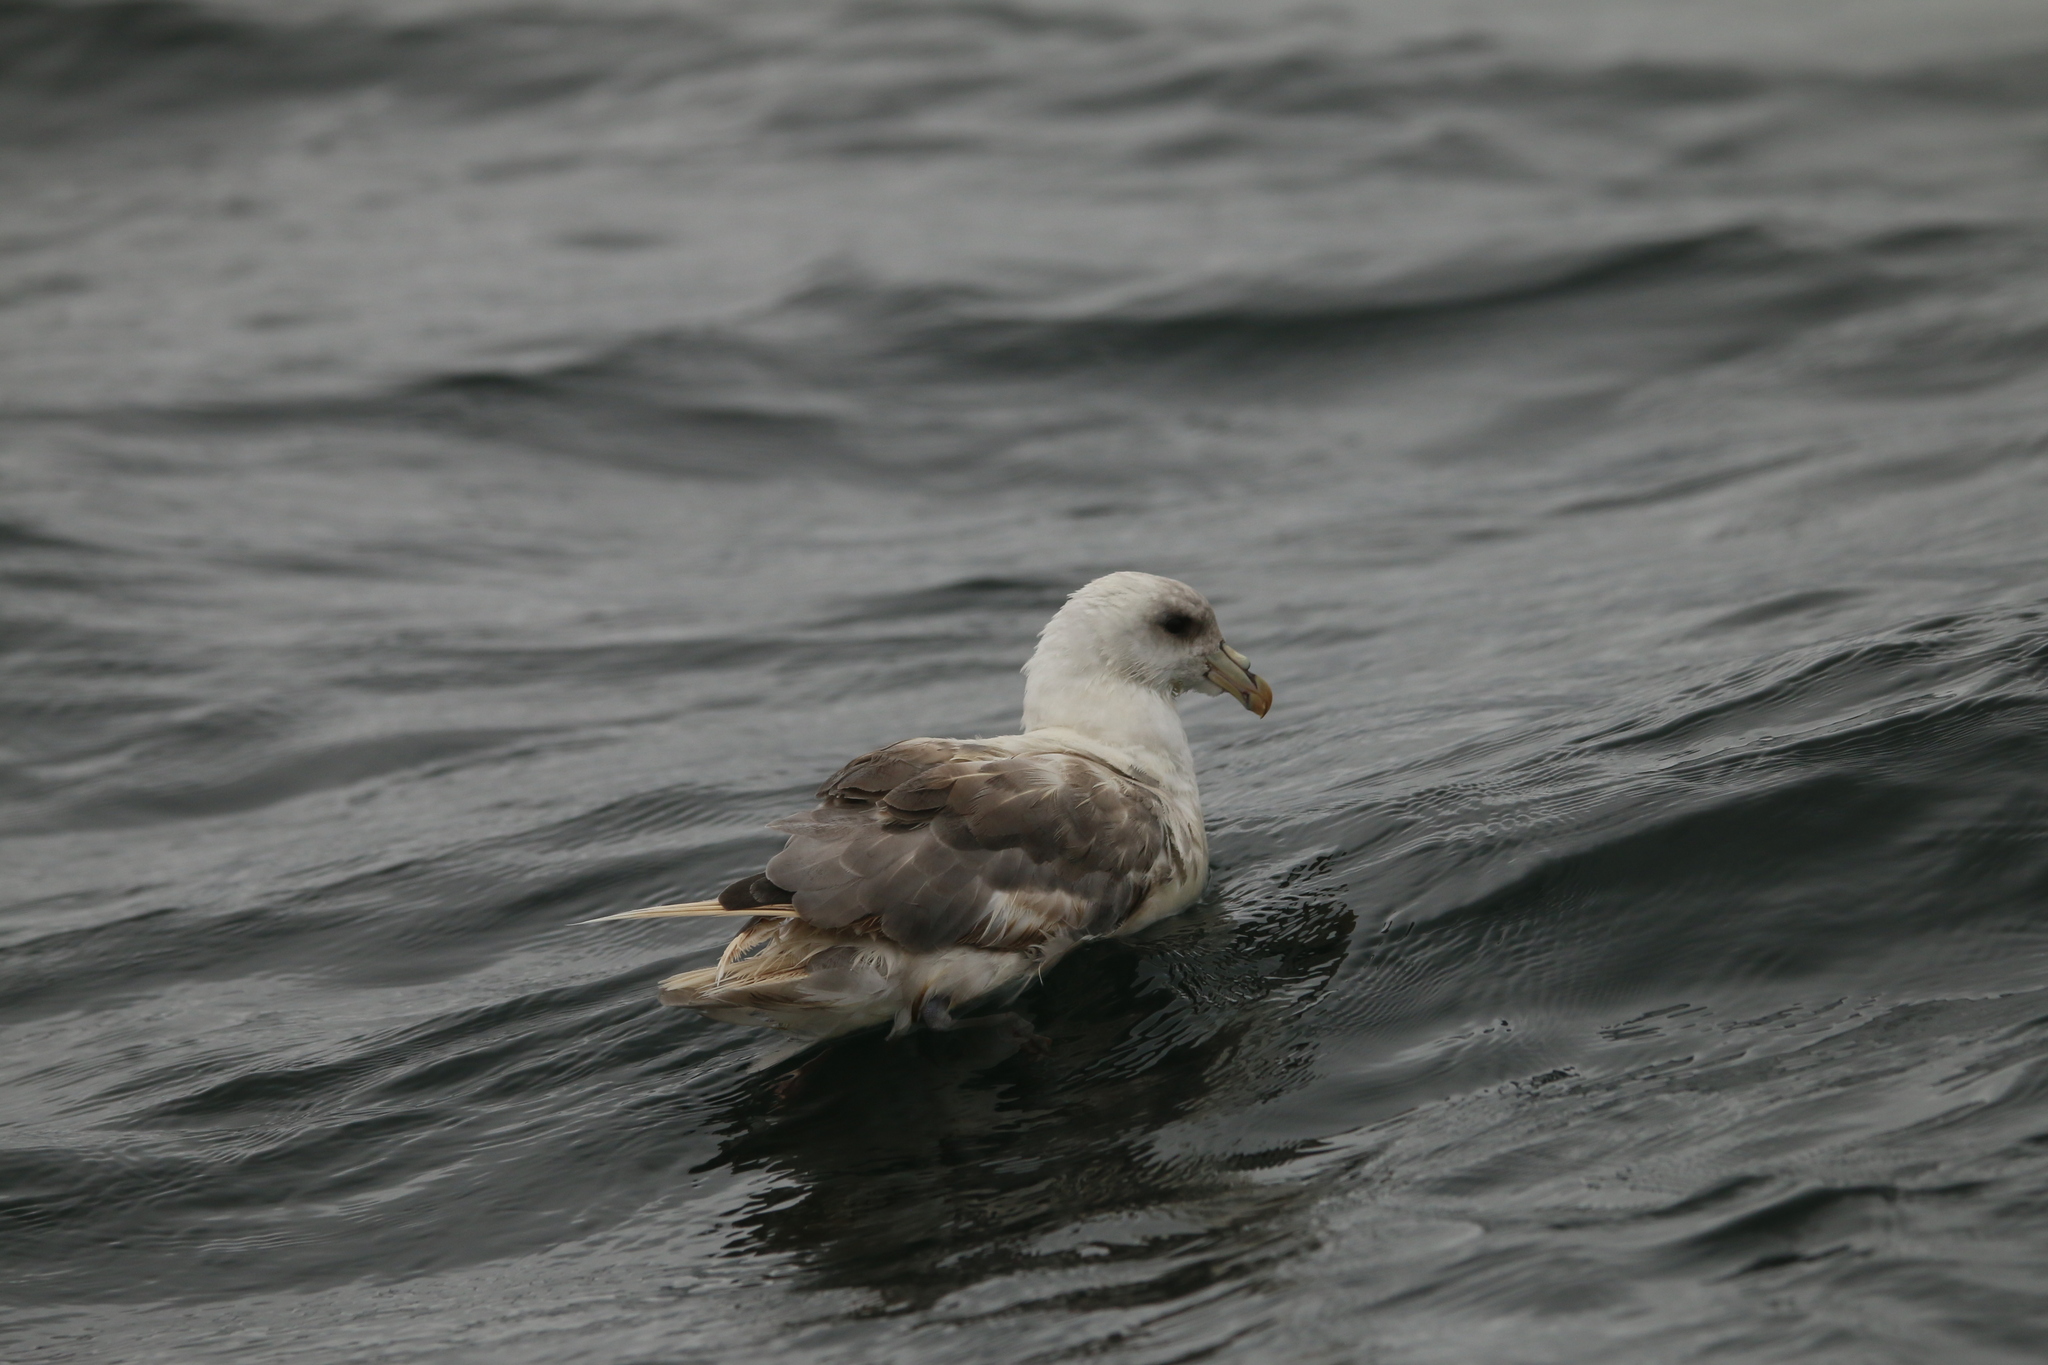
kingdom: Animalia
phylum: Chordata
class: Aves
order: Procellariiformes
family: Procellariidae
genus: Fulmarus
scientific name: Fulmarus glacialis
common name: Northern fulmar
